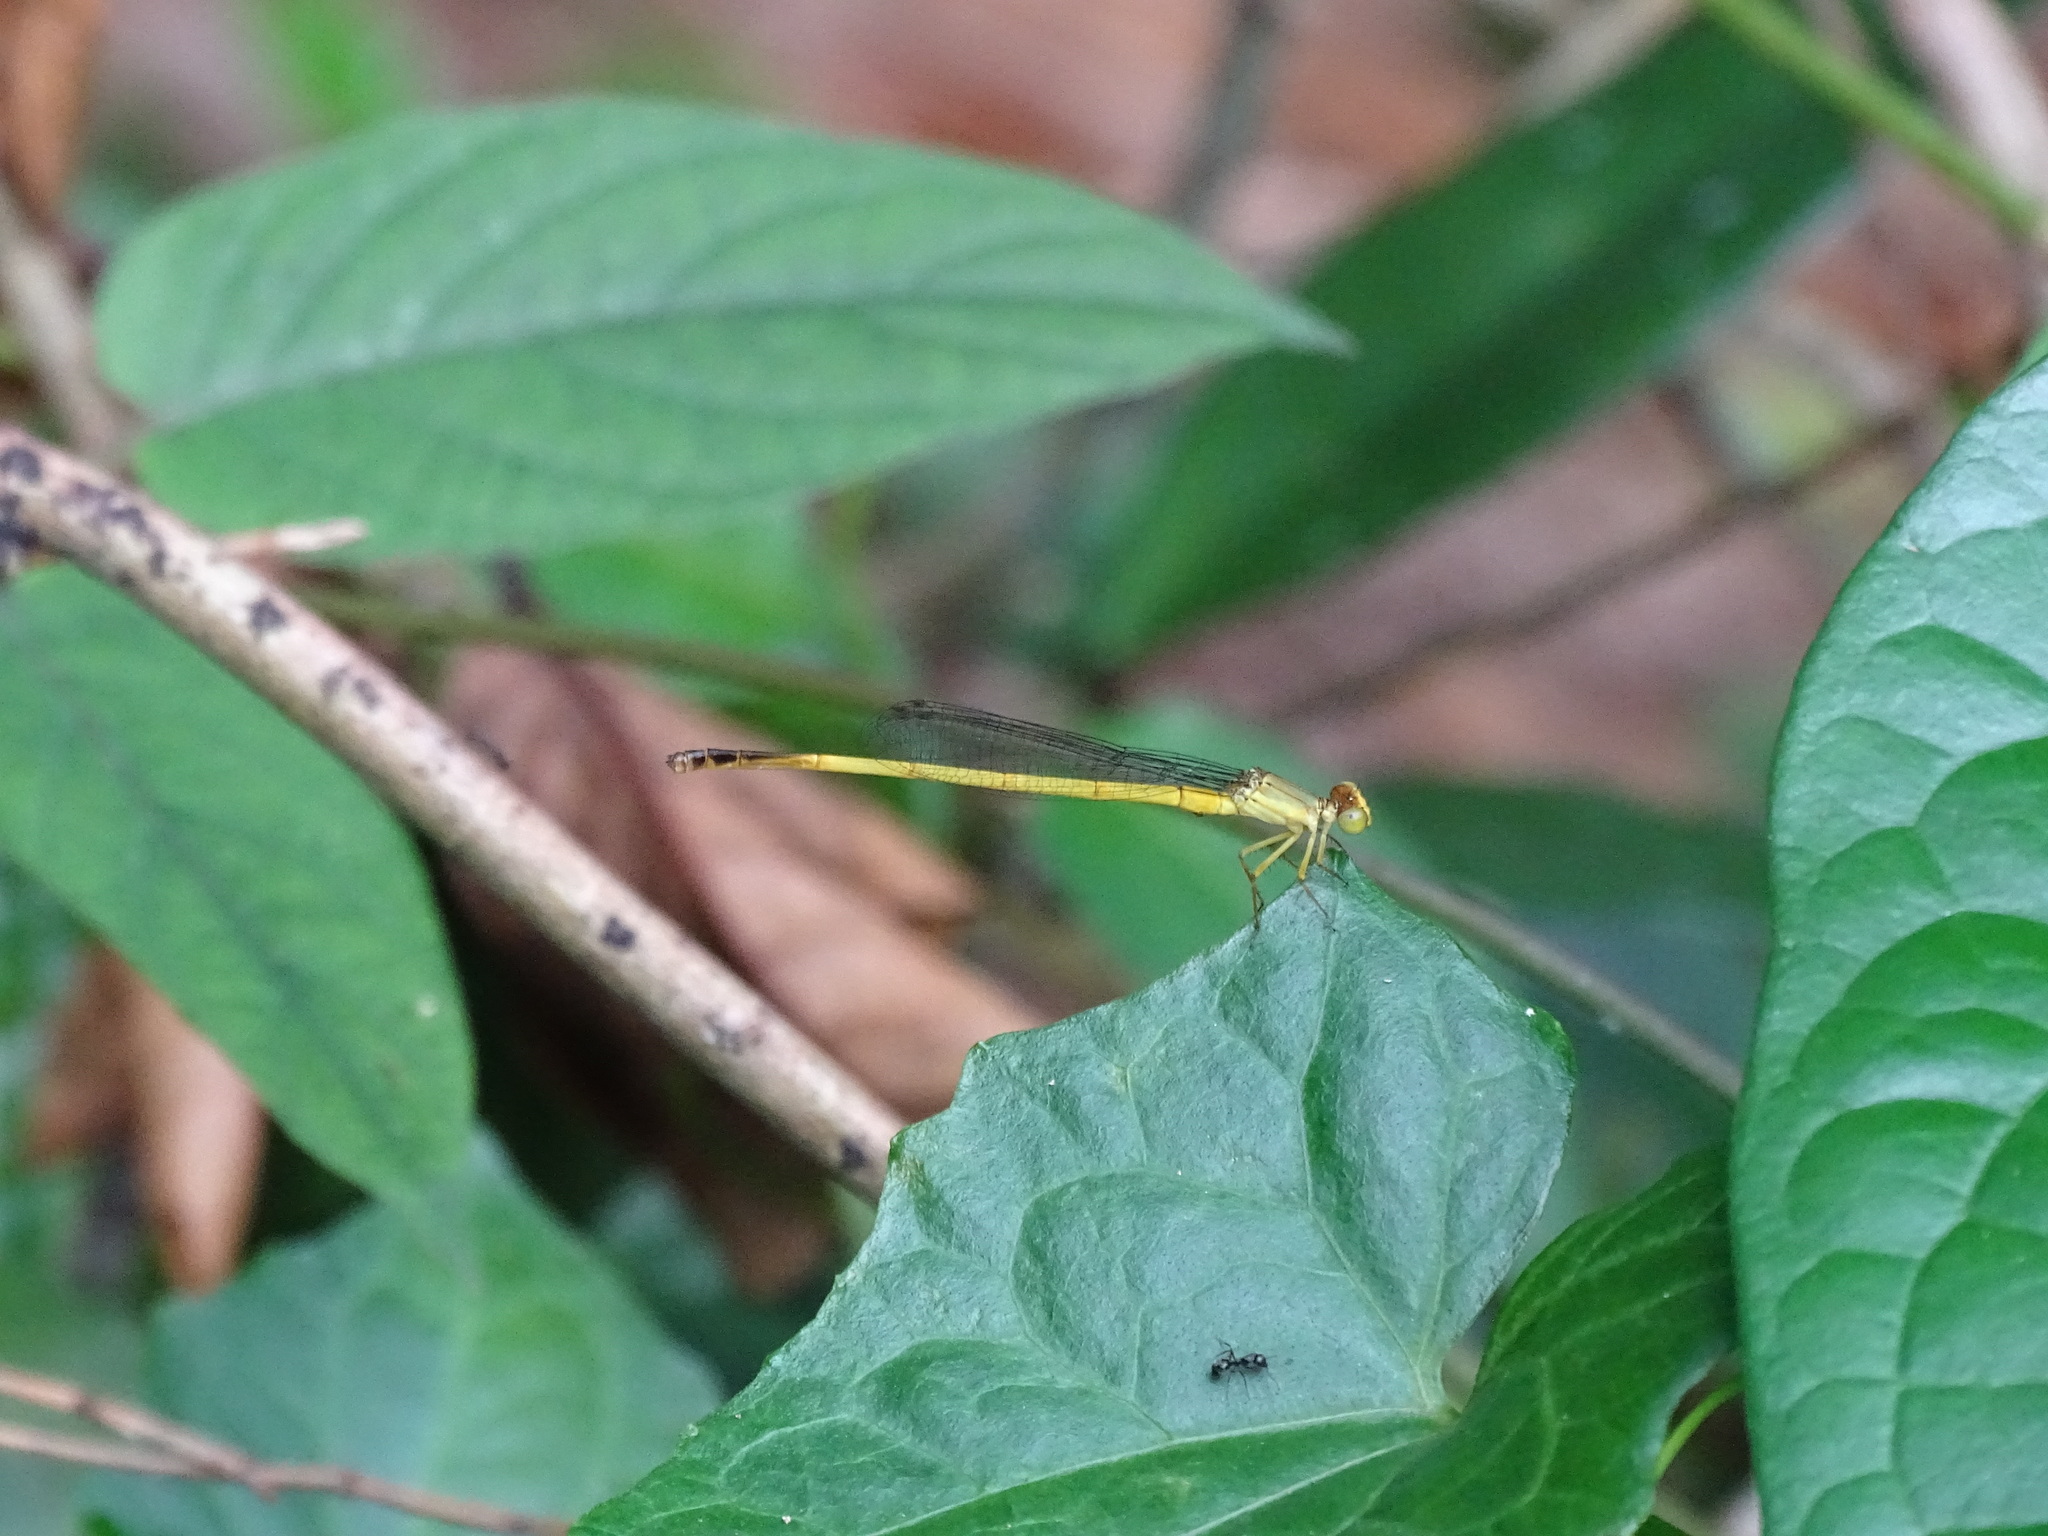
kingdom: Animalia
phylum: Arthropoda
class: Insecta
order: Odonata
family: Coenagrionidae
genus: Ceriagrion
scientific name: Ceriagrion fallax
